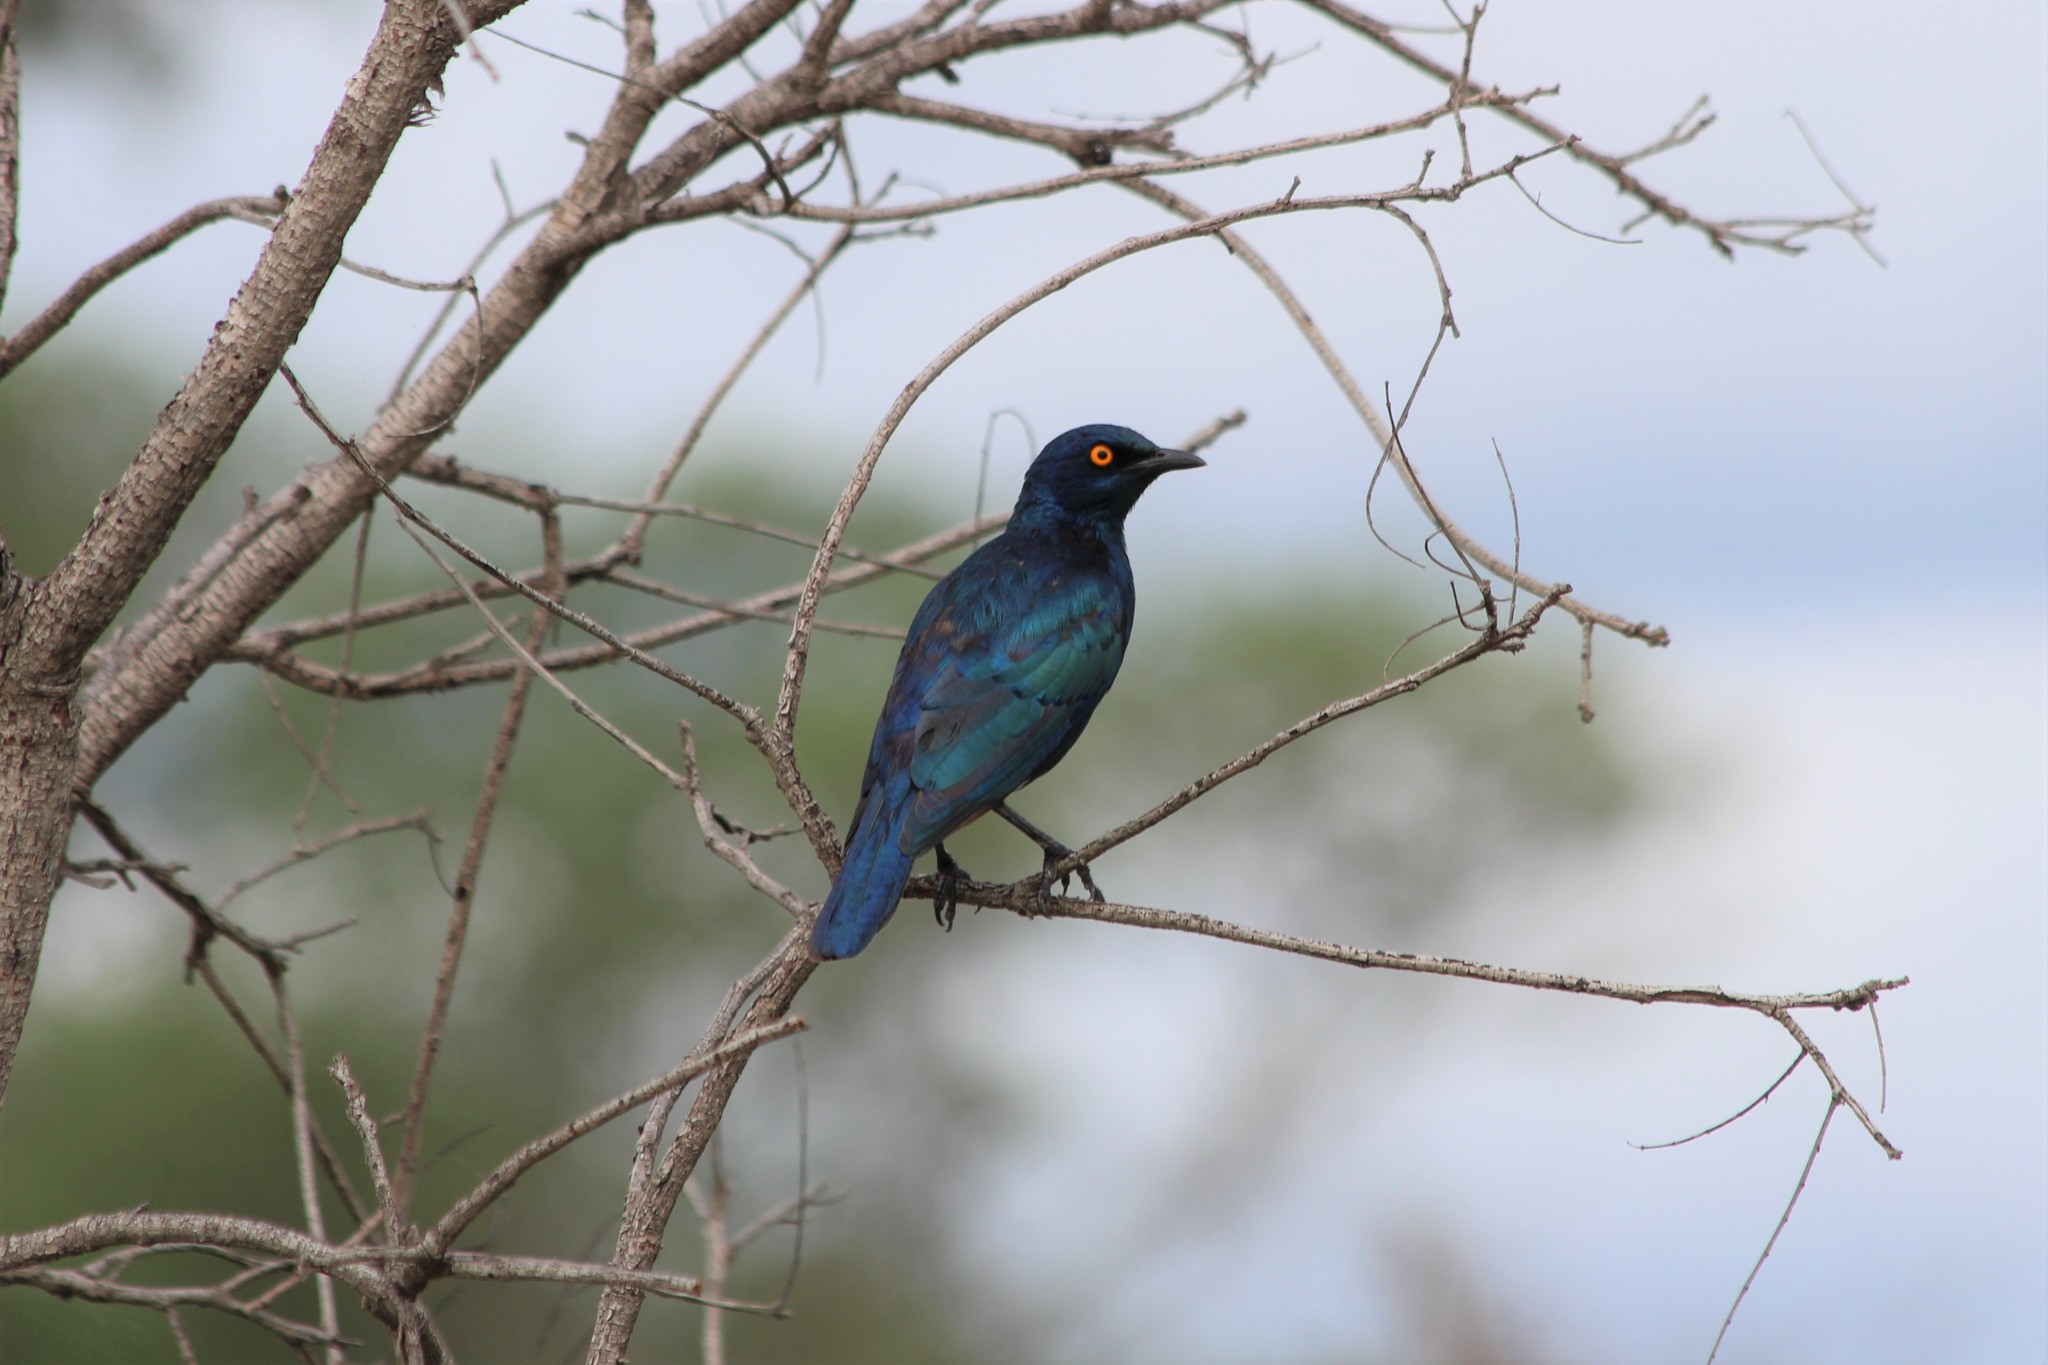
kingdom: Animalia
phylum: Chordata
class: Aves
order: Passeriformes
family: Sturnidae
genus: Lamprotornis
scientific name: Lamprotornis nitens
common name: Cape starling
